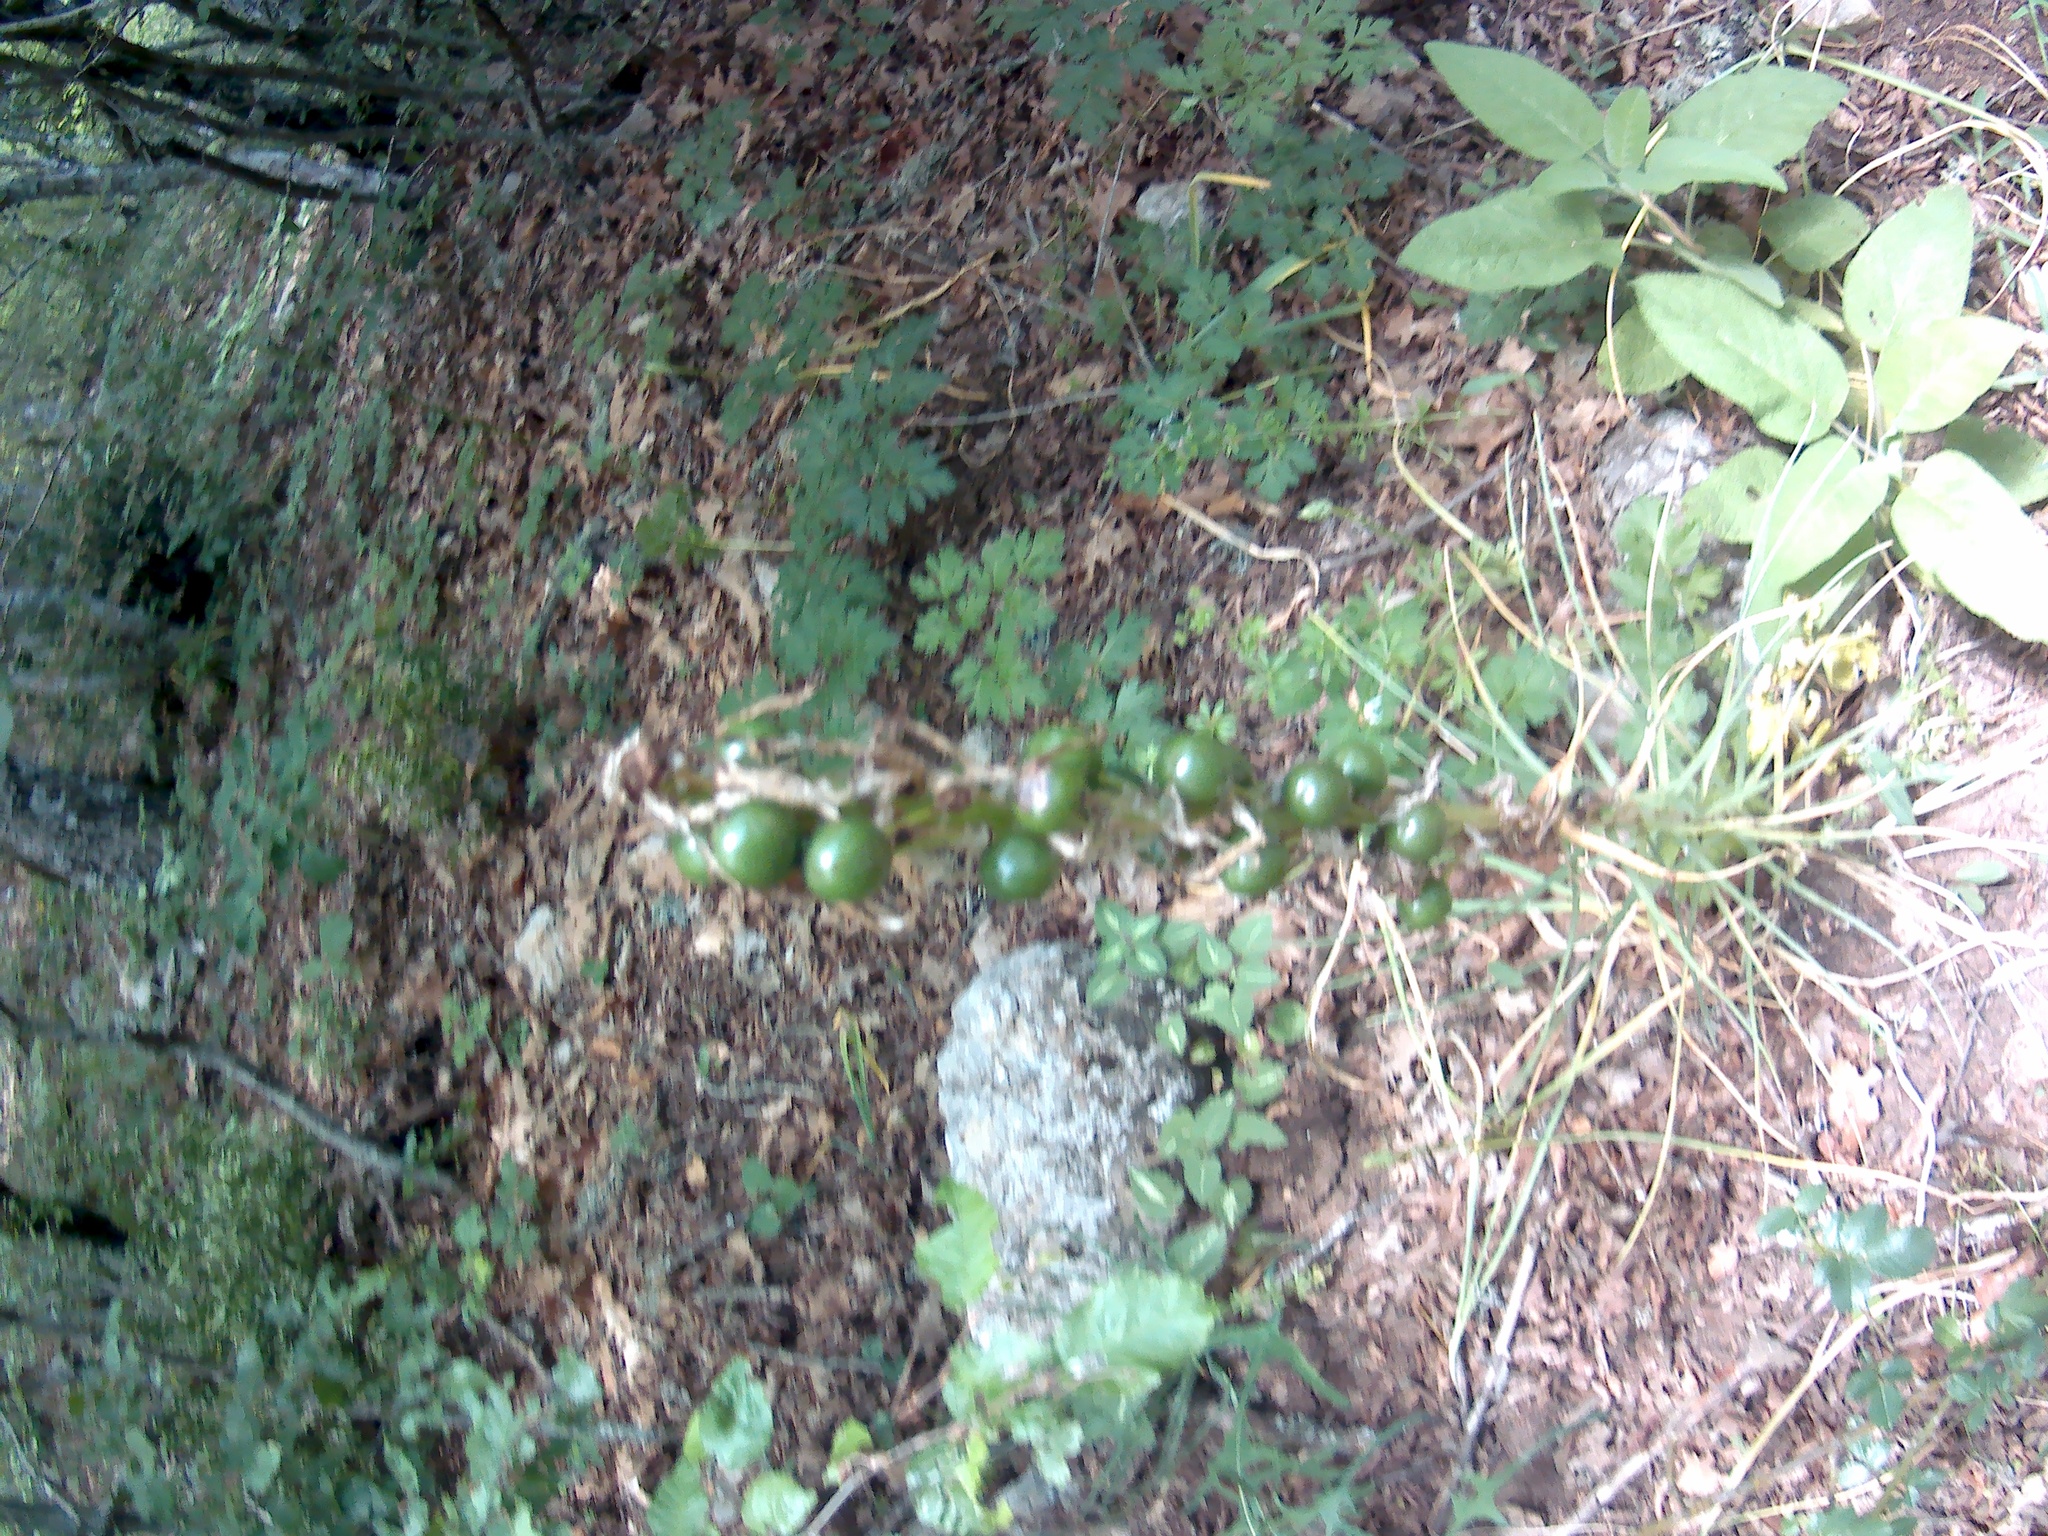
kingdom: Plantae
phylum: Tracheophyta
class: Liliopsida
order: Asparagales
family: Asphodelaceae
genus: Asphodeline
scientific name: Asphodeline lutea
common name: Yellow asphodel
